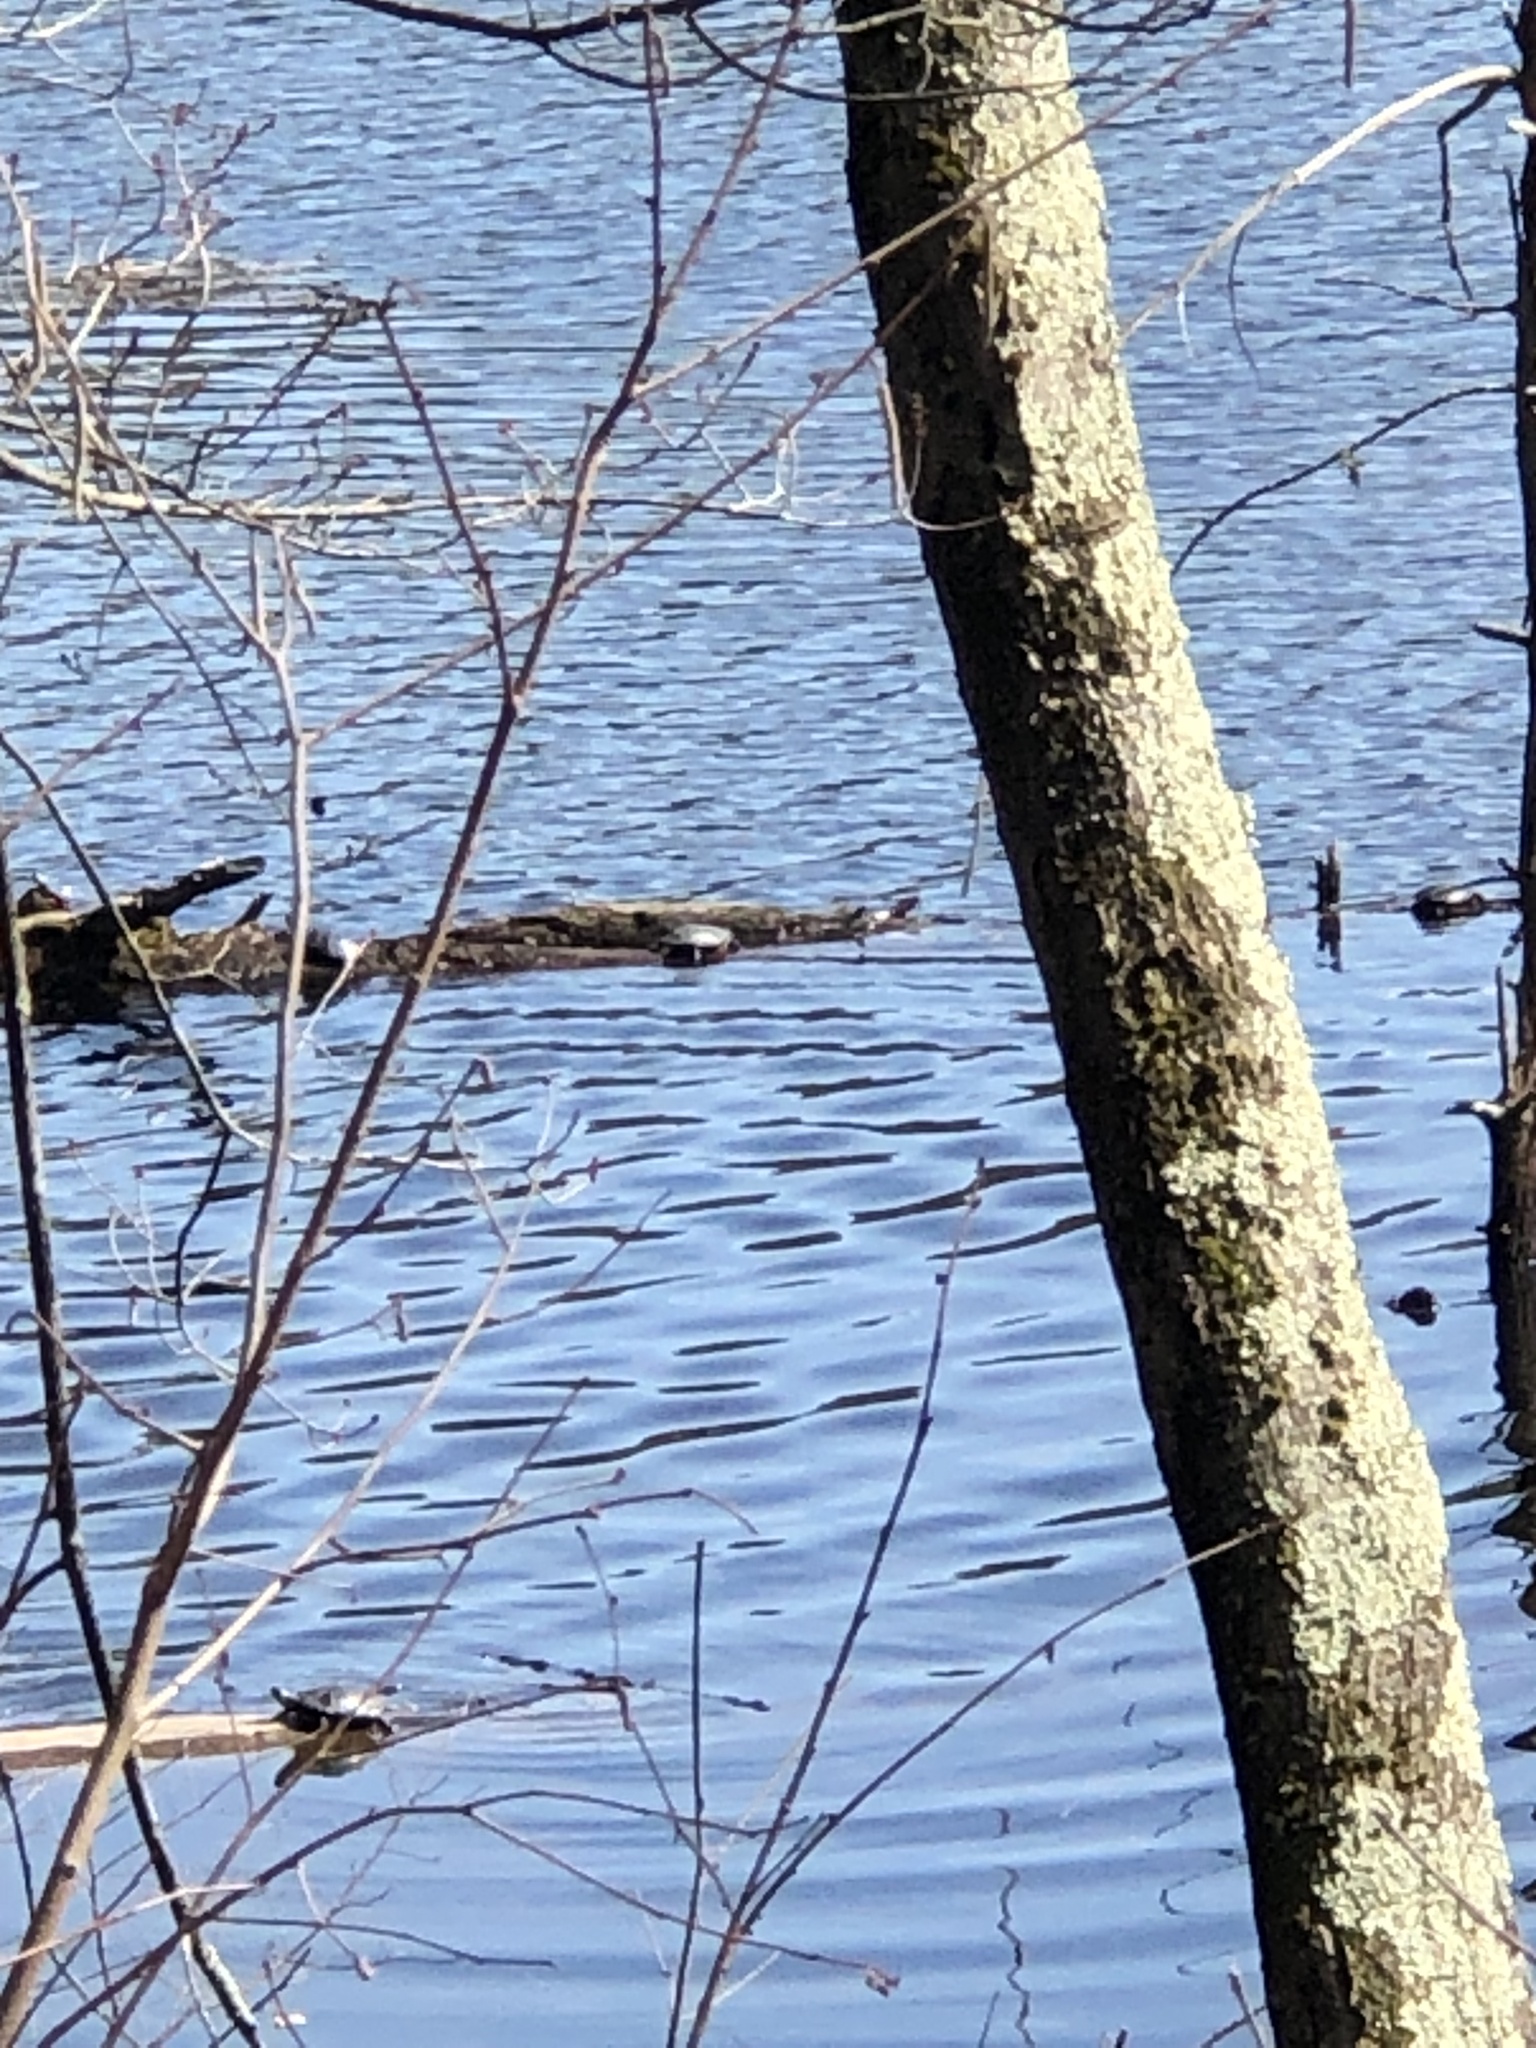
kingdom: Animalia
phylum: Chordata
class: Testudines
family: Emydidae
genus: Chrysemys
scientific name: Chrysemys picta
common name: Painted turtle
